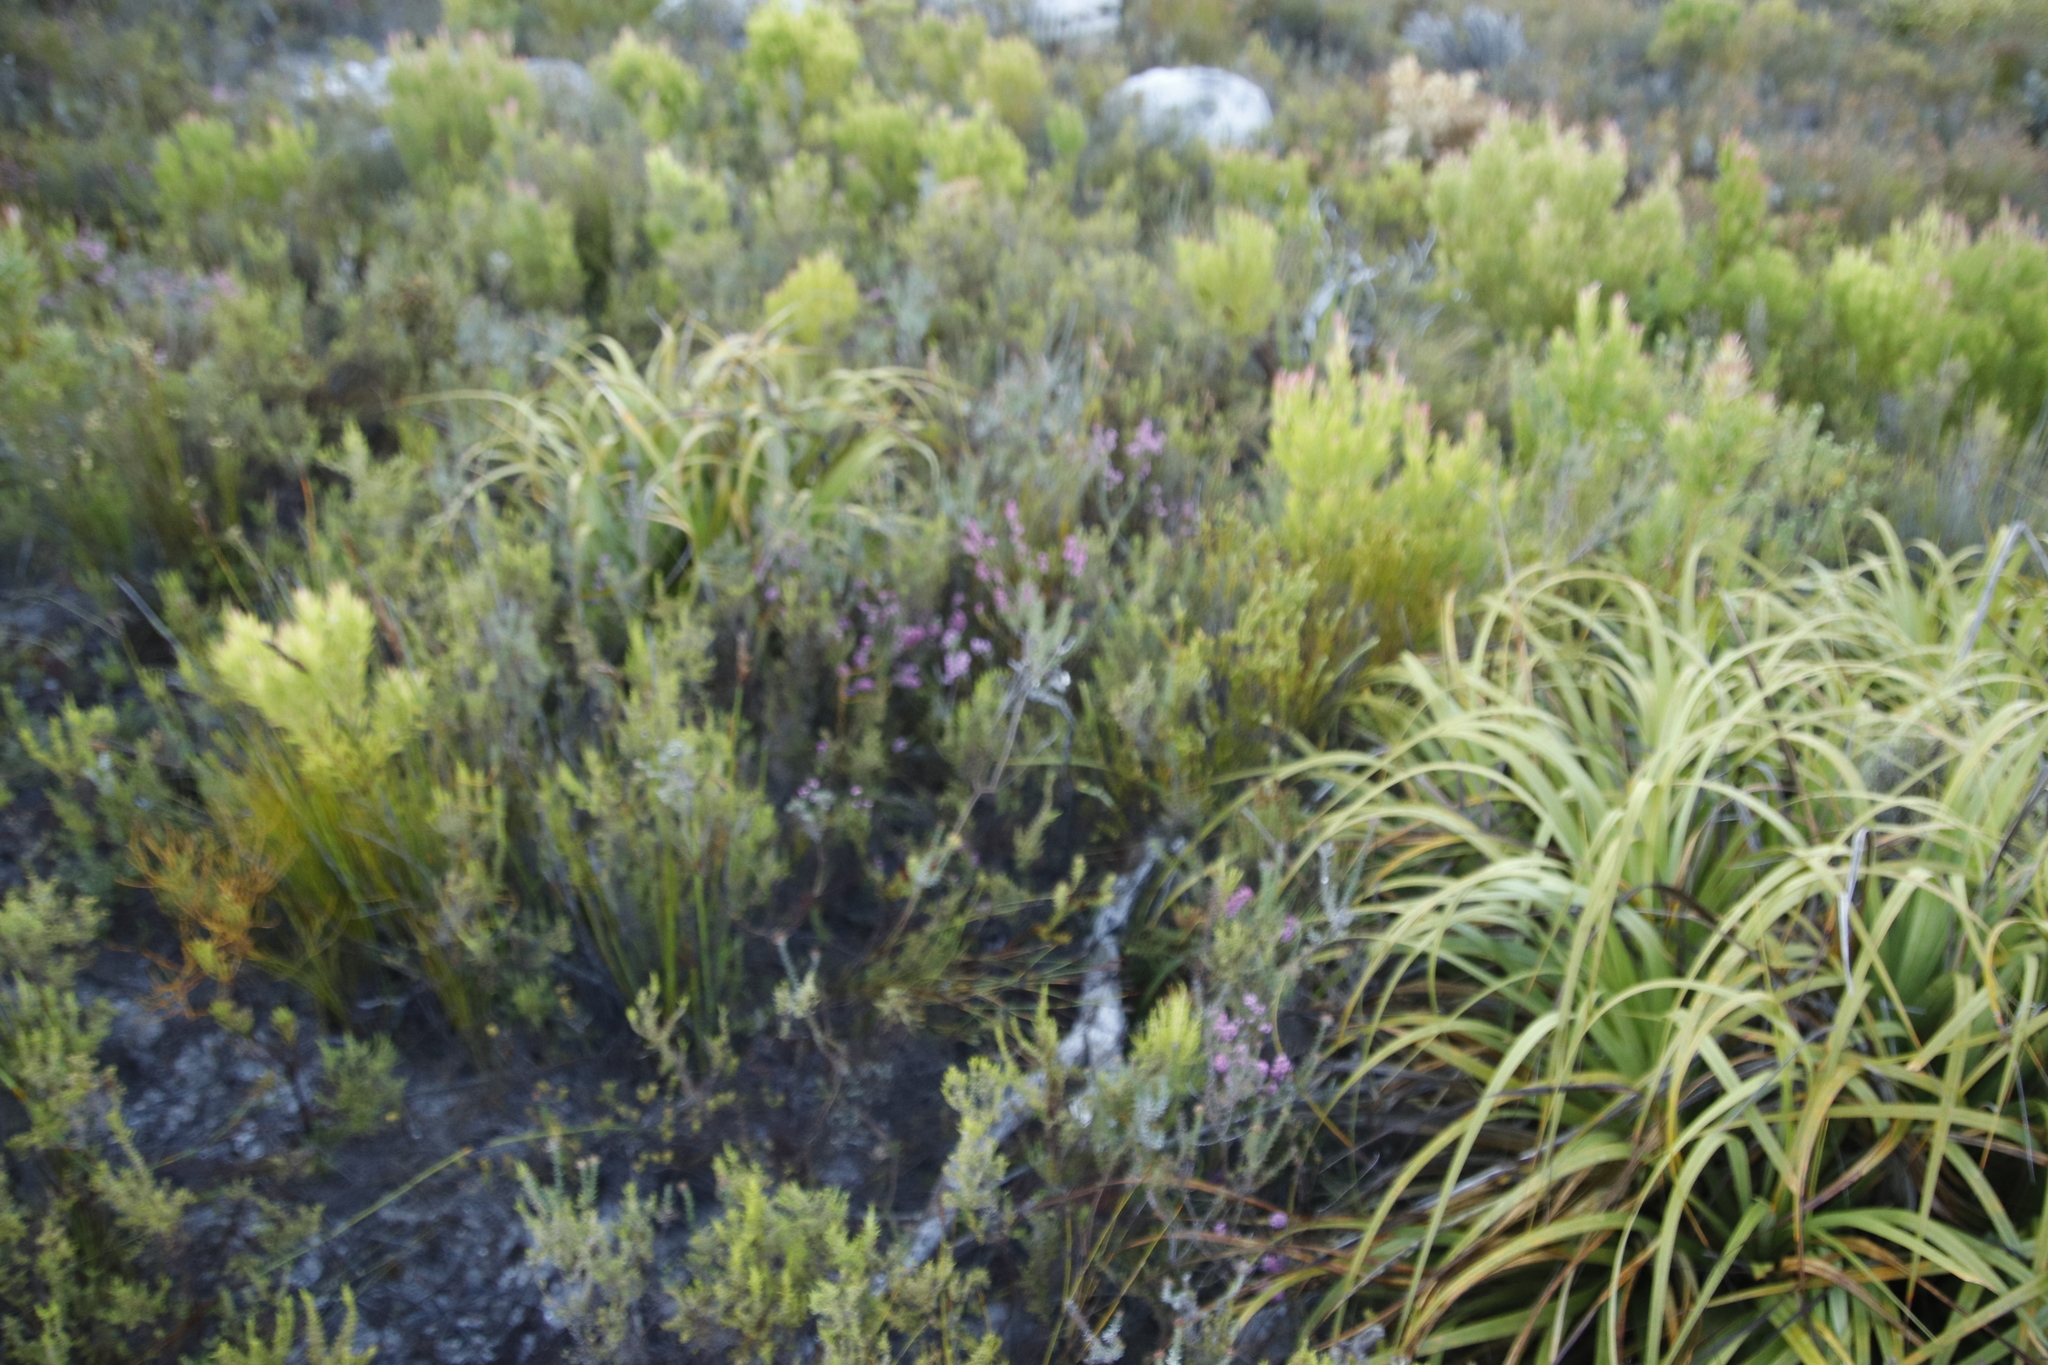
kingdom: Plantae
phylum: Tracheophyta
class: Magnoliopsida
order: Ericales
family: Ericaceae
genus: Erica
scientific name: Erica corifolia
